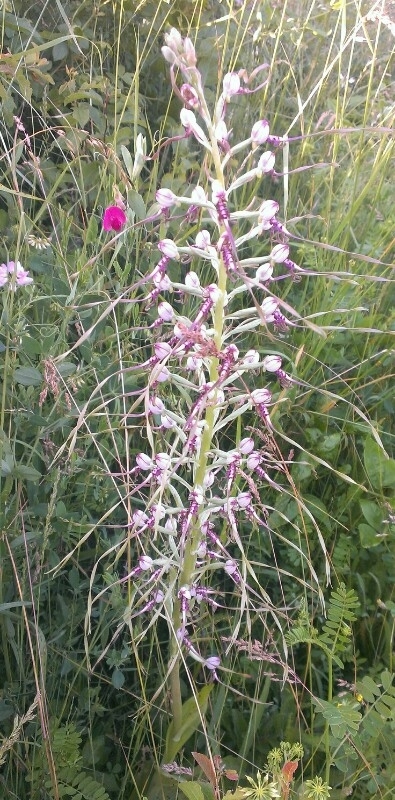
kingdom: Plantae
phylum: Tracheophyta
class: Liliopsida
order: Asparagales
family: Orchidaceae
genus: Himantoglossum
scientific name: Himantoglossum adriaticum
